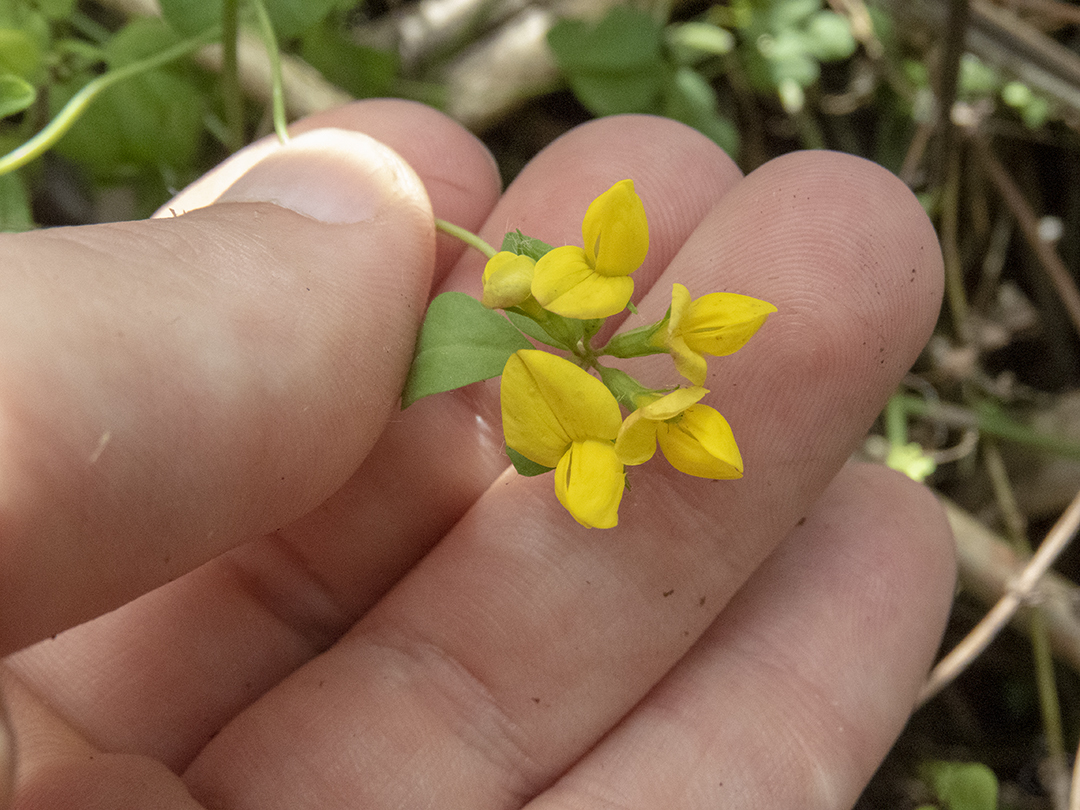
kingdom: Plantae
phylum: Tracheophyta
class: Magnoliopsida
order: Fabales
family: Fabaceae
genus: Lotus
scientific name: Lotus pedunculatus
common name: Greater birdsfoot-trefoil
